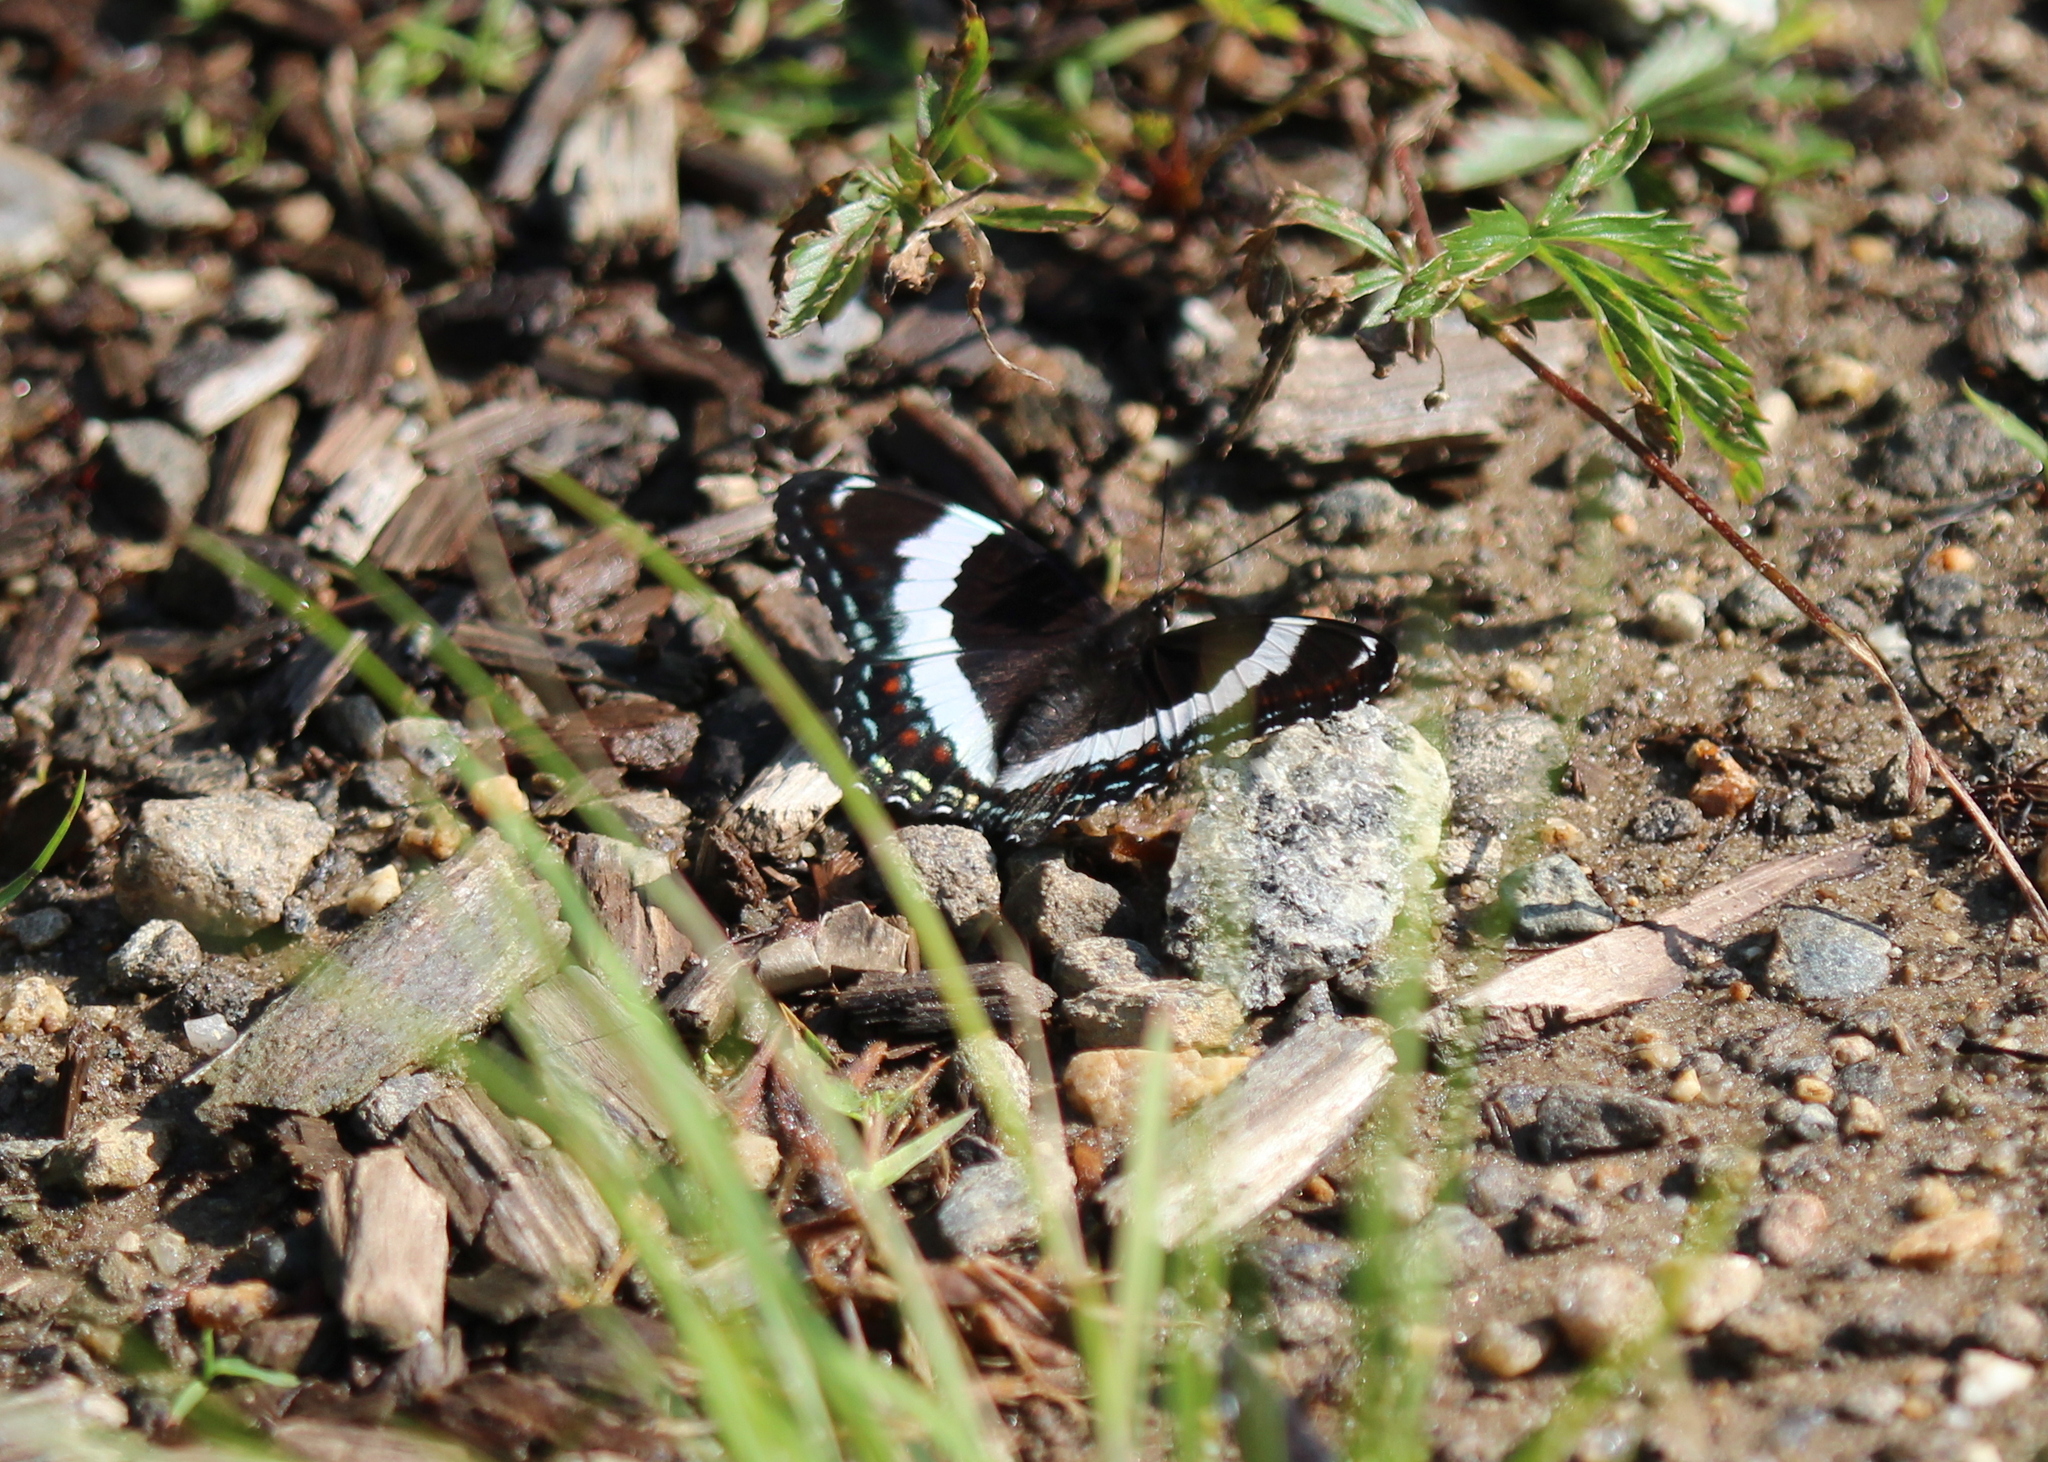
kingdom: Animalia
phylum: Arthropoda
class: Insecta
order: Lepidoptera
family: Nymphalidae
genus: Limenitis
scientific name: Limenitis arthemis
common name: Red-spotted admiral
